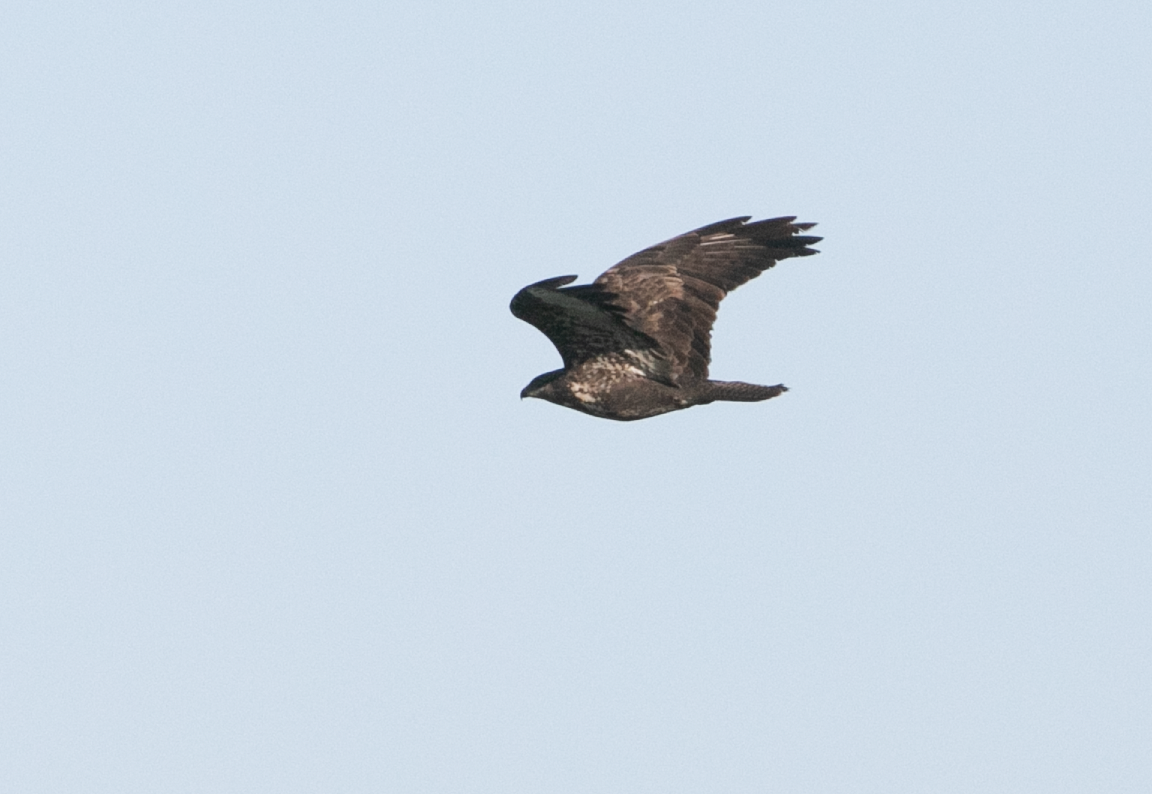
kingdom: Animalia
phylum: Chordata
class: Aves
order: Accipitriformes
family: Accipitridae
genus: Buteo
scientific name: Buteo buteo
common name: Common buzzard
